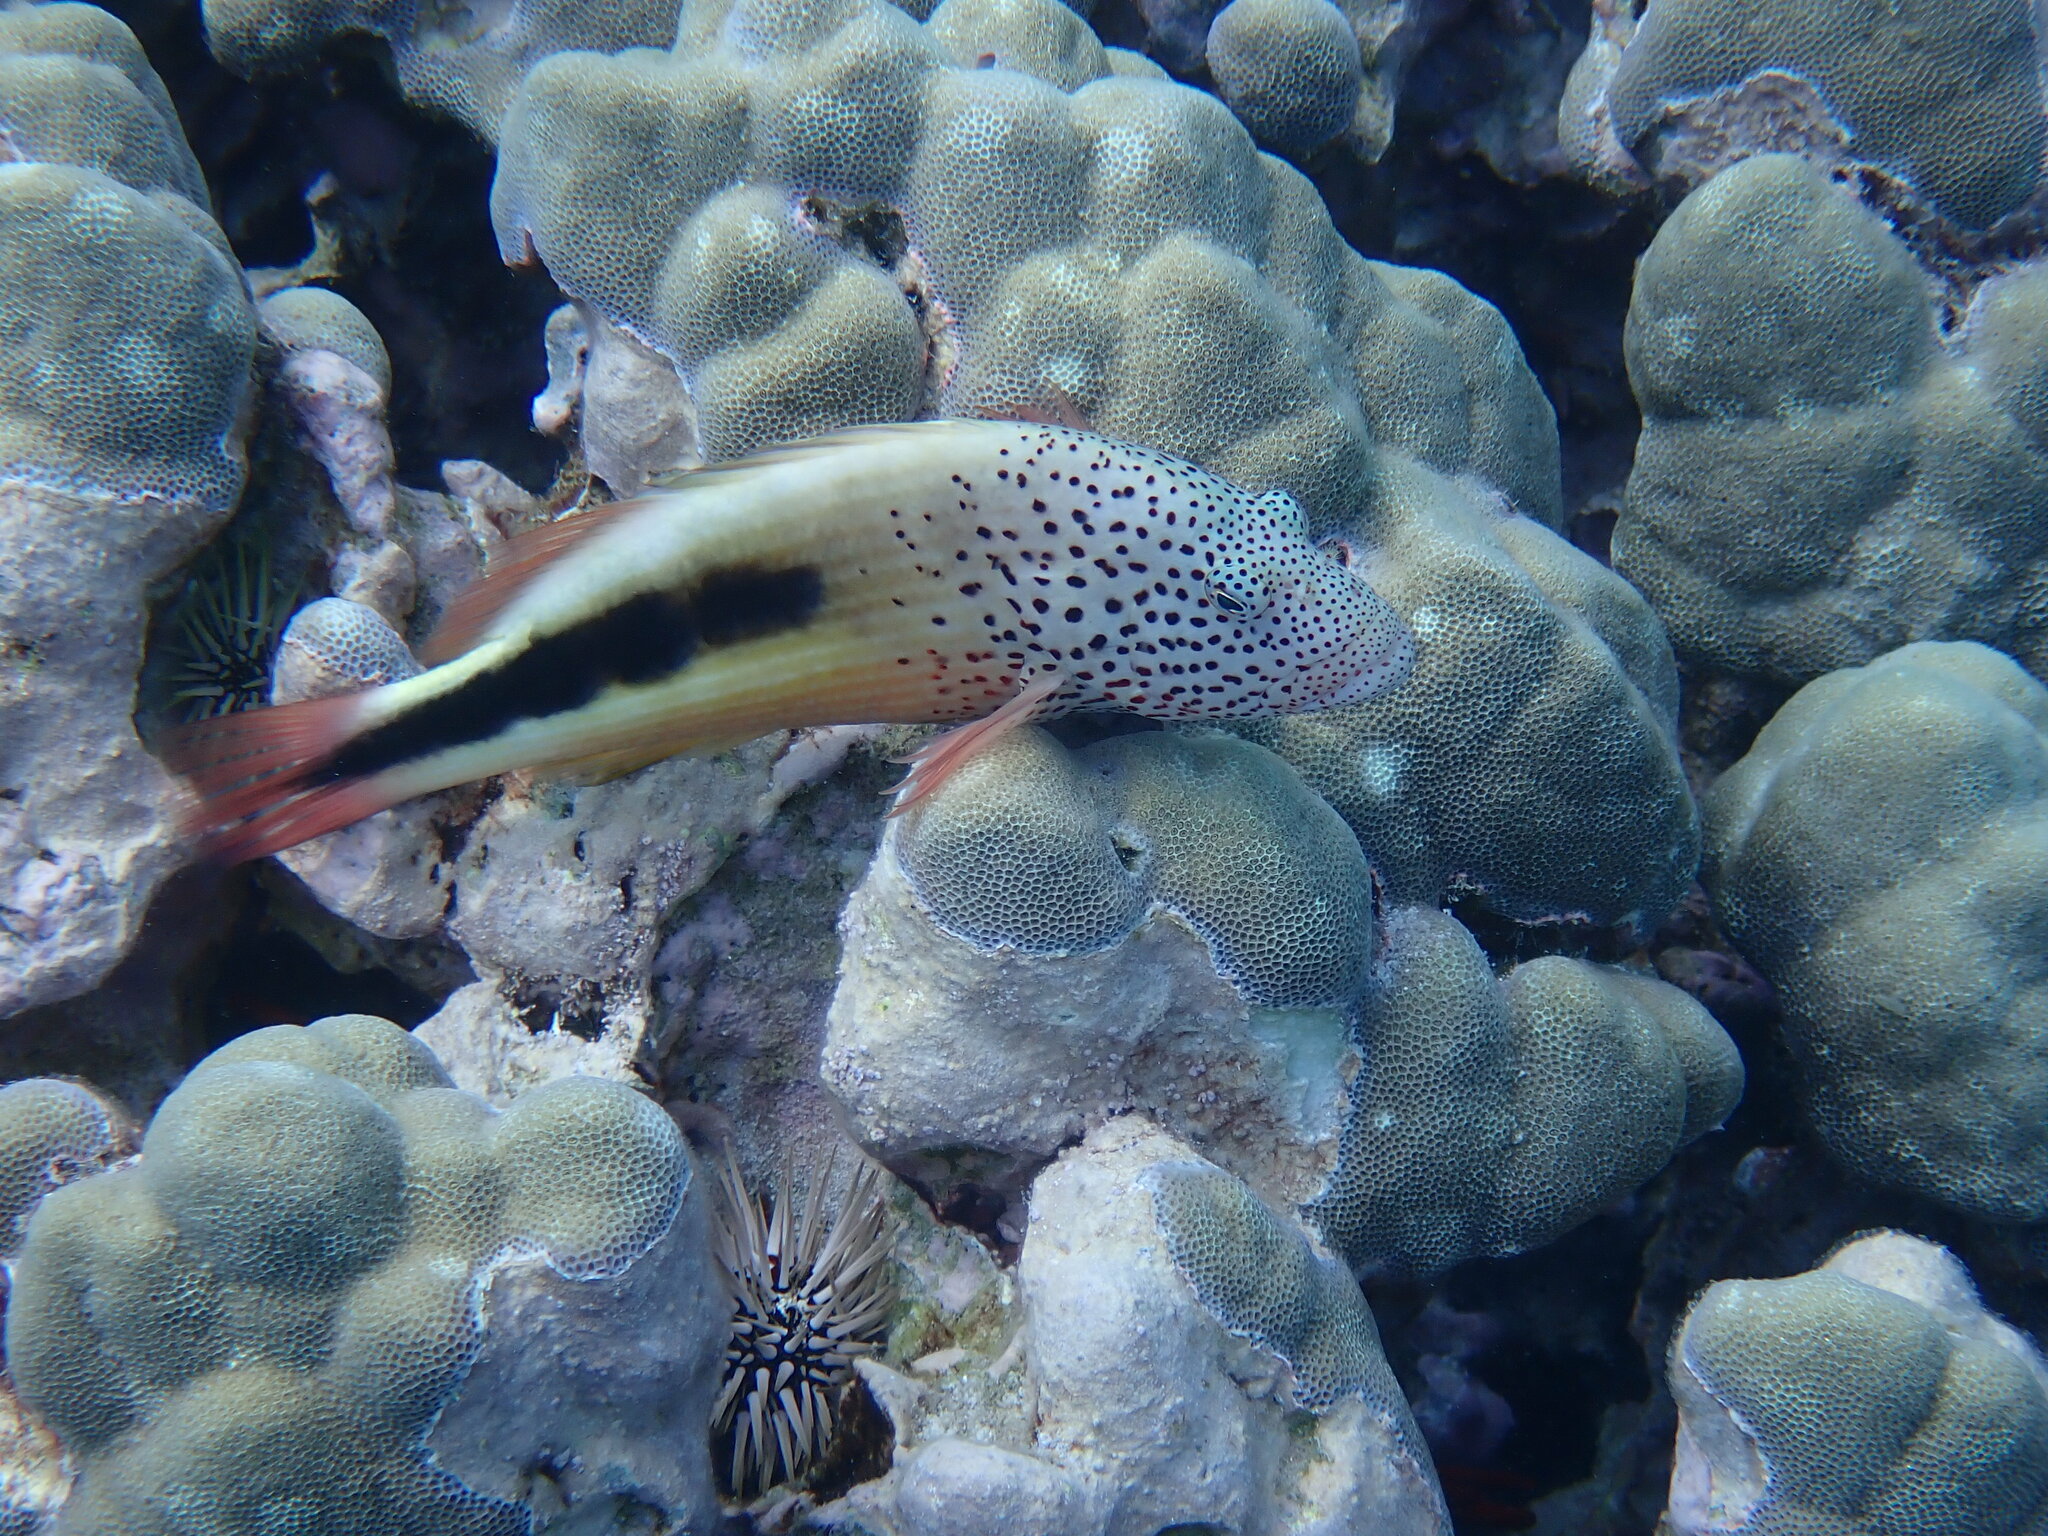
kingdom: Animalia
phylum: Chordata
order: Perciformes
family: Cirrhitidae
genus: Paracirrhites
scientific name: Paracirrhites forsteri
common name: Freckled hawkfish
